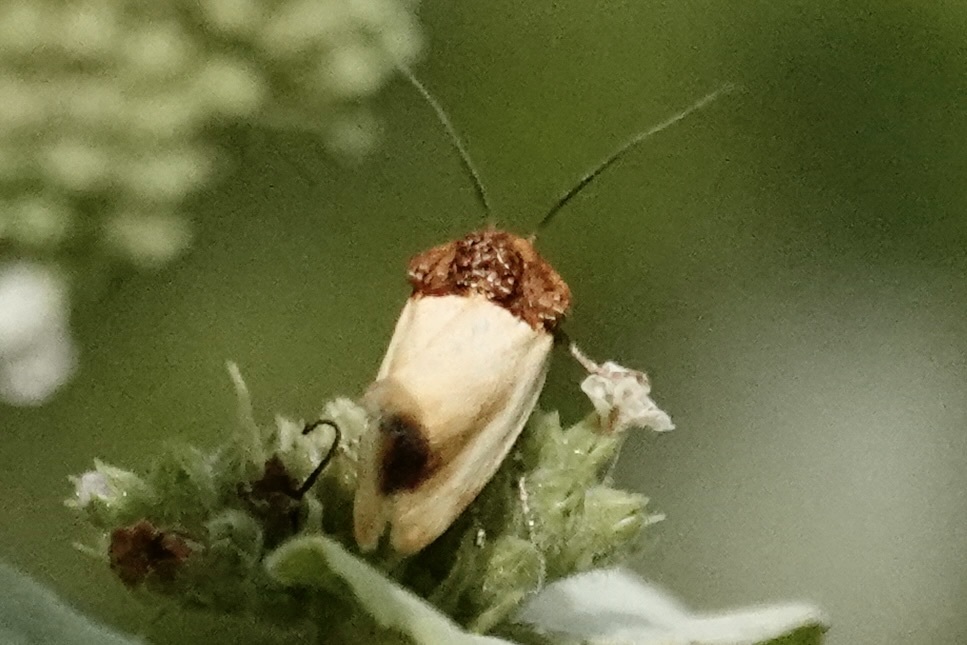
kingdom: Animalia
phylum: Arthropoda
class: Insecta
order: Lepidoptera
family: Noctuidae
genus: Spragueia
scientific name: Spragueia apicalis
